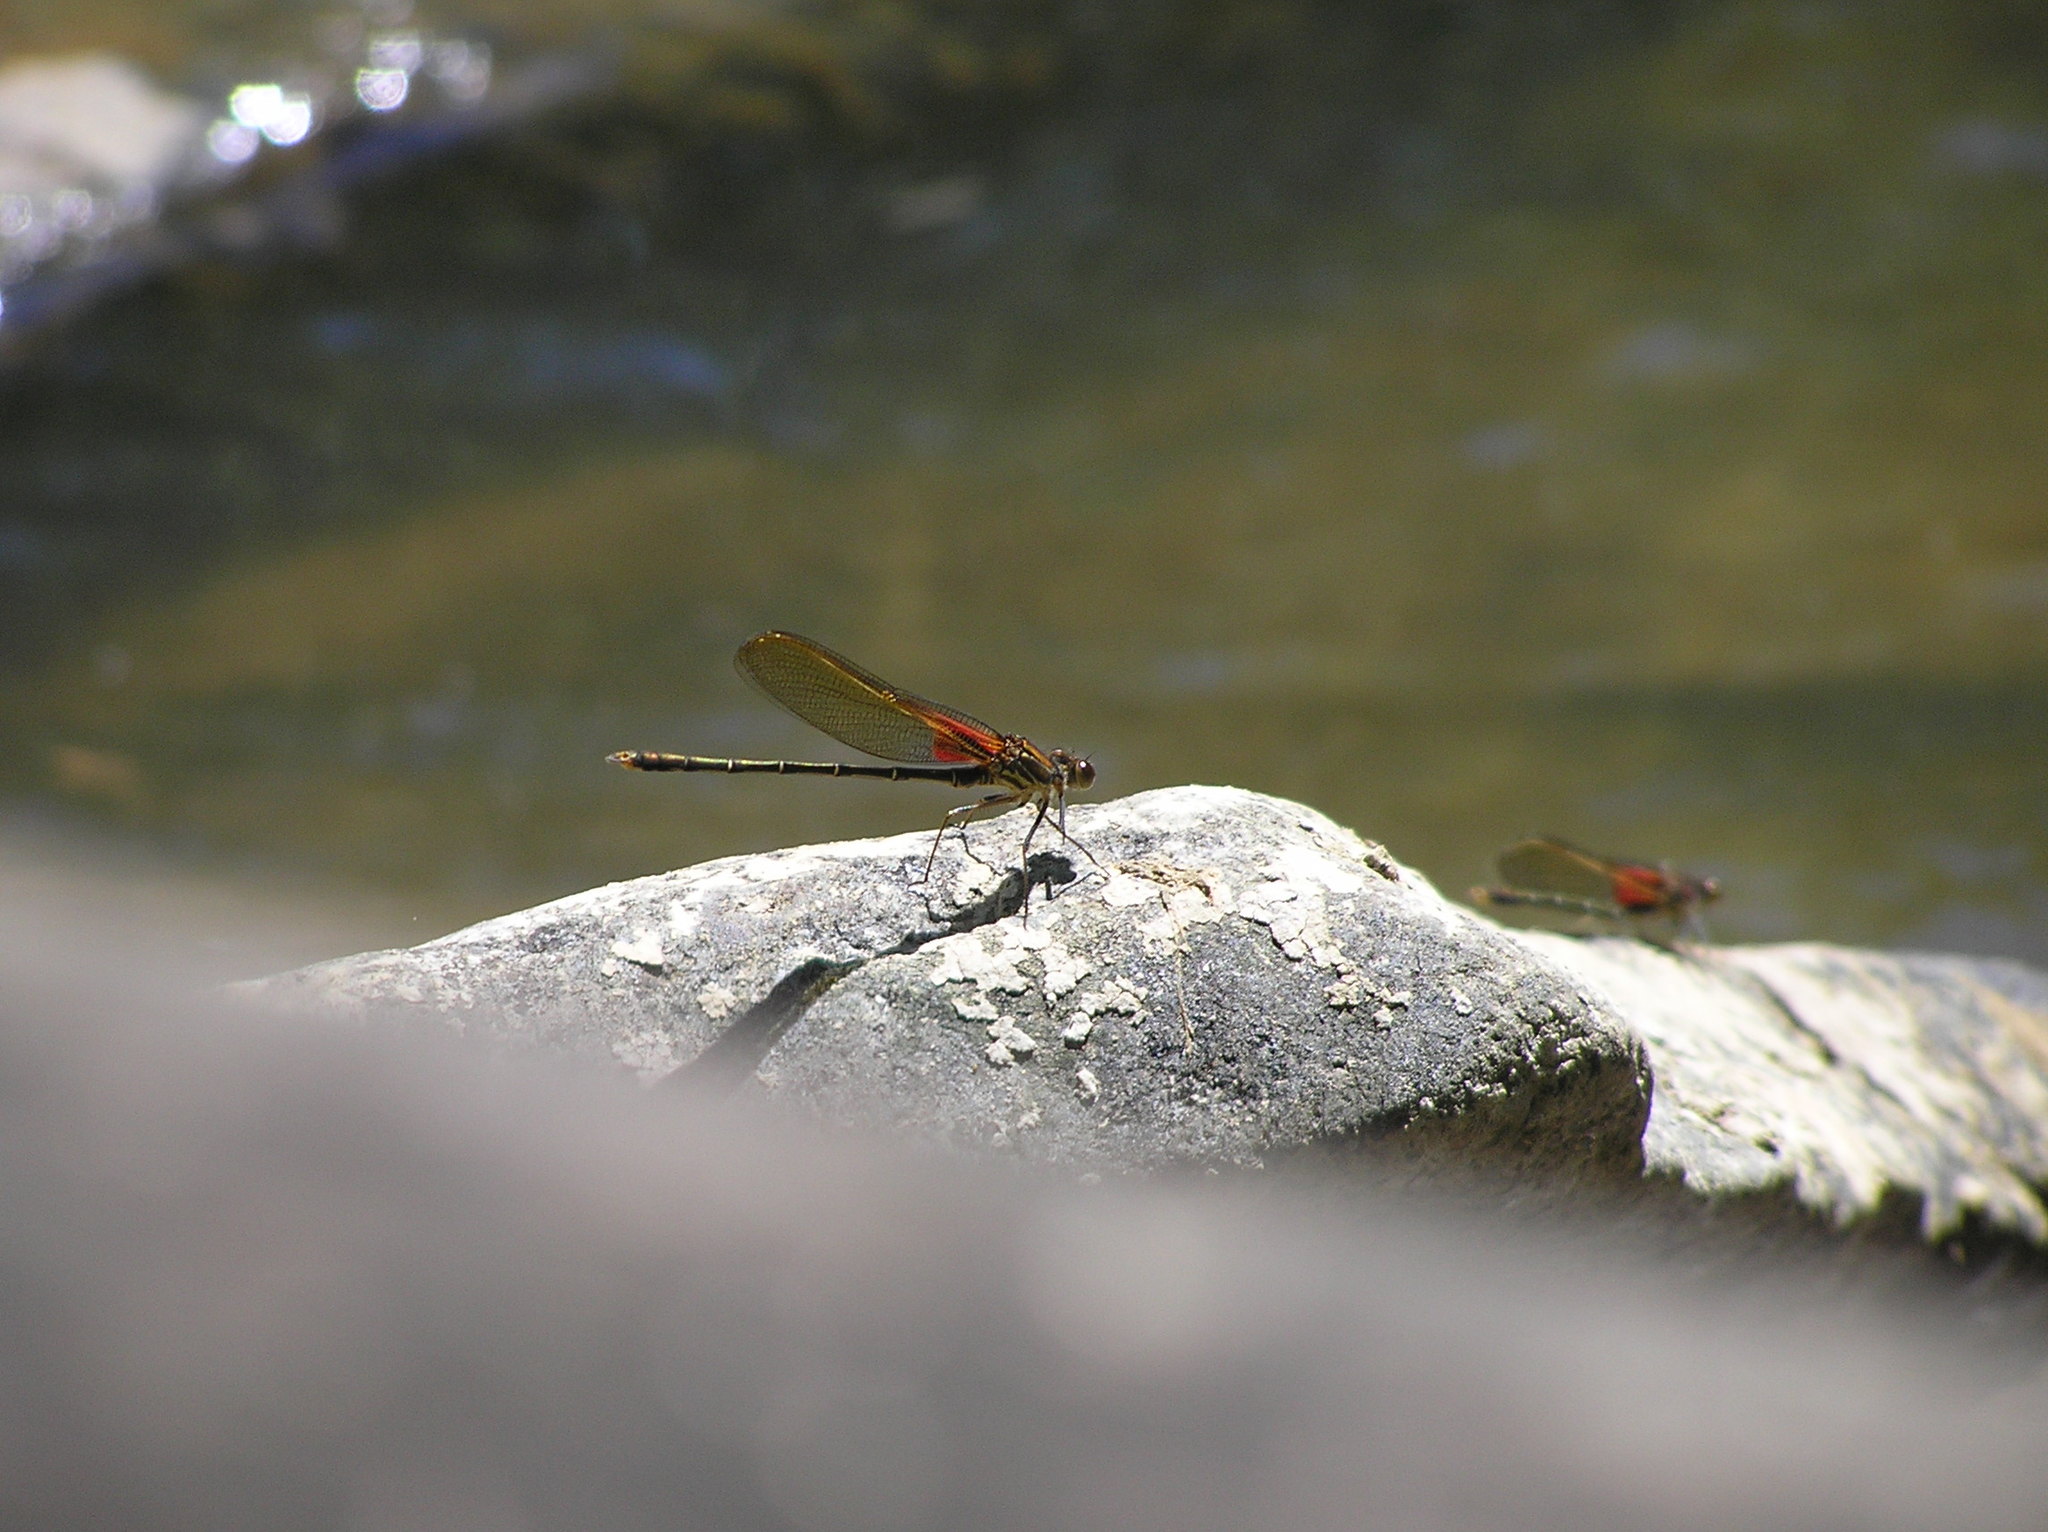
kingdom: Animalia
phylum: Arthropoda
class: Insecta
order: Odonata
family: Calopterygidae
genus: Hetaerina
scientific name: Hetaerina americana
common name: American rubyspot
